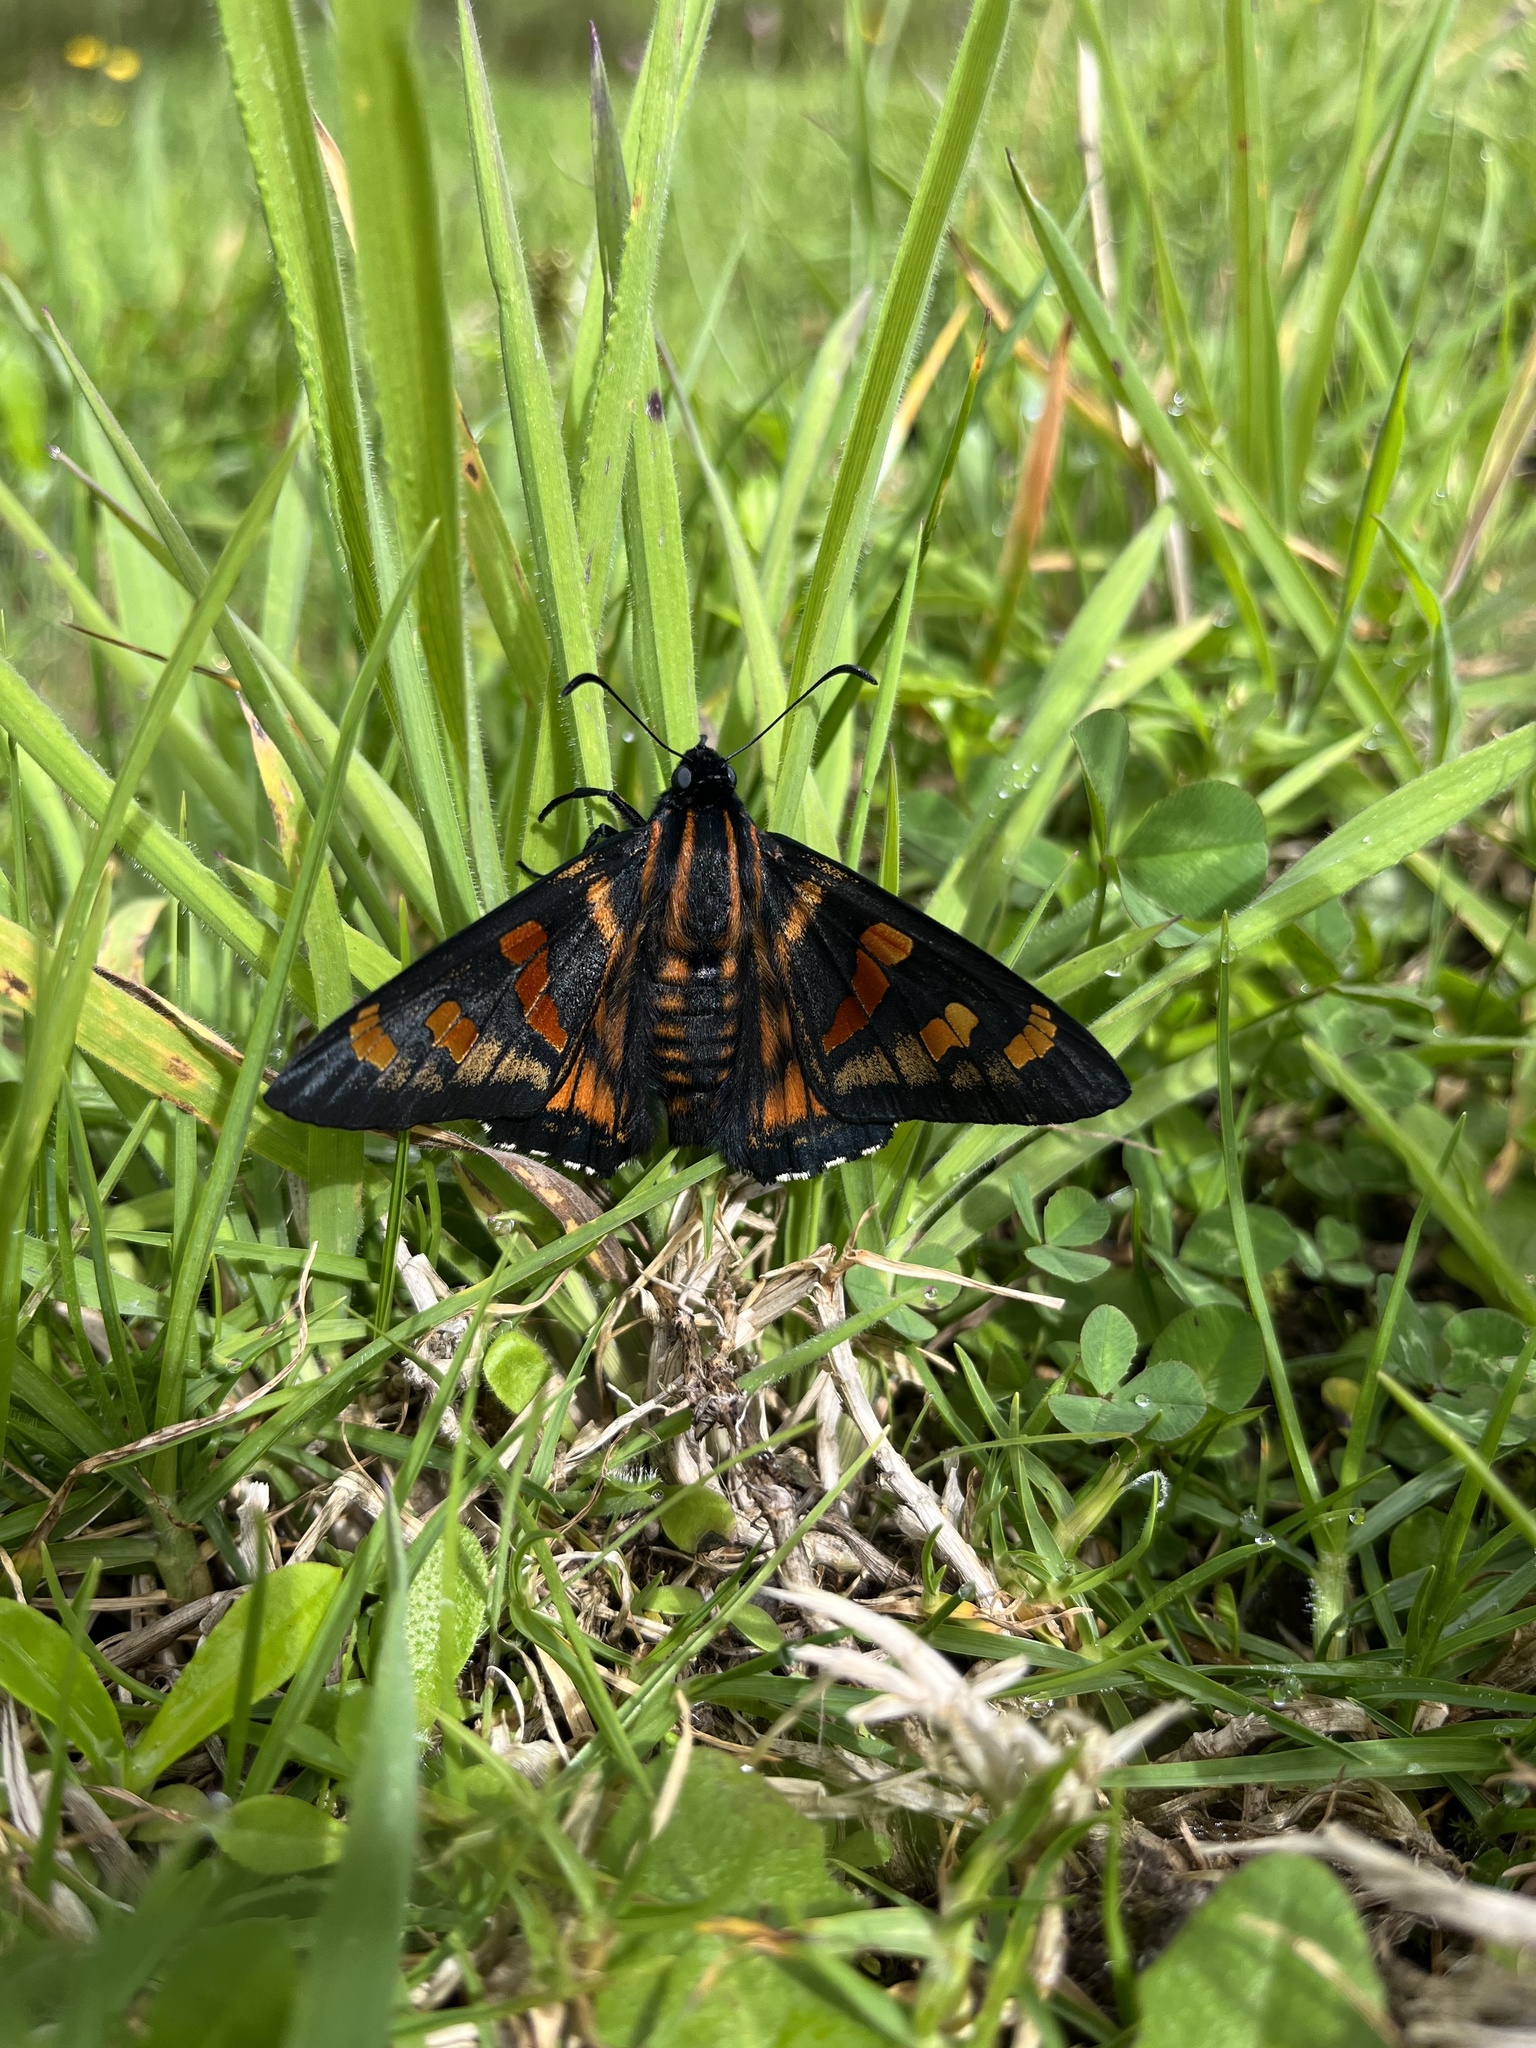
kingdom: Animalia
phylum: Arthropoda
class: Insecta
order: Lepidoptera
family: Hesperiidae
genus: Mimardaris
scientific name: Mimardaris
